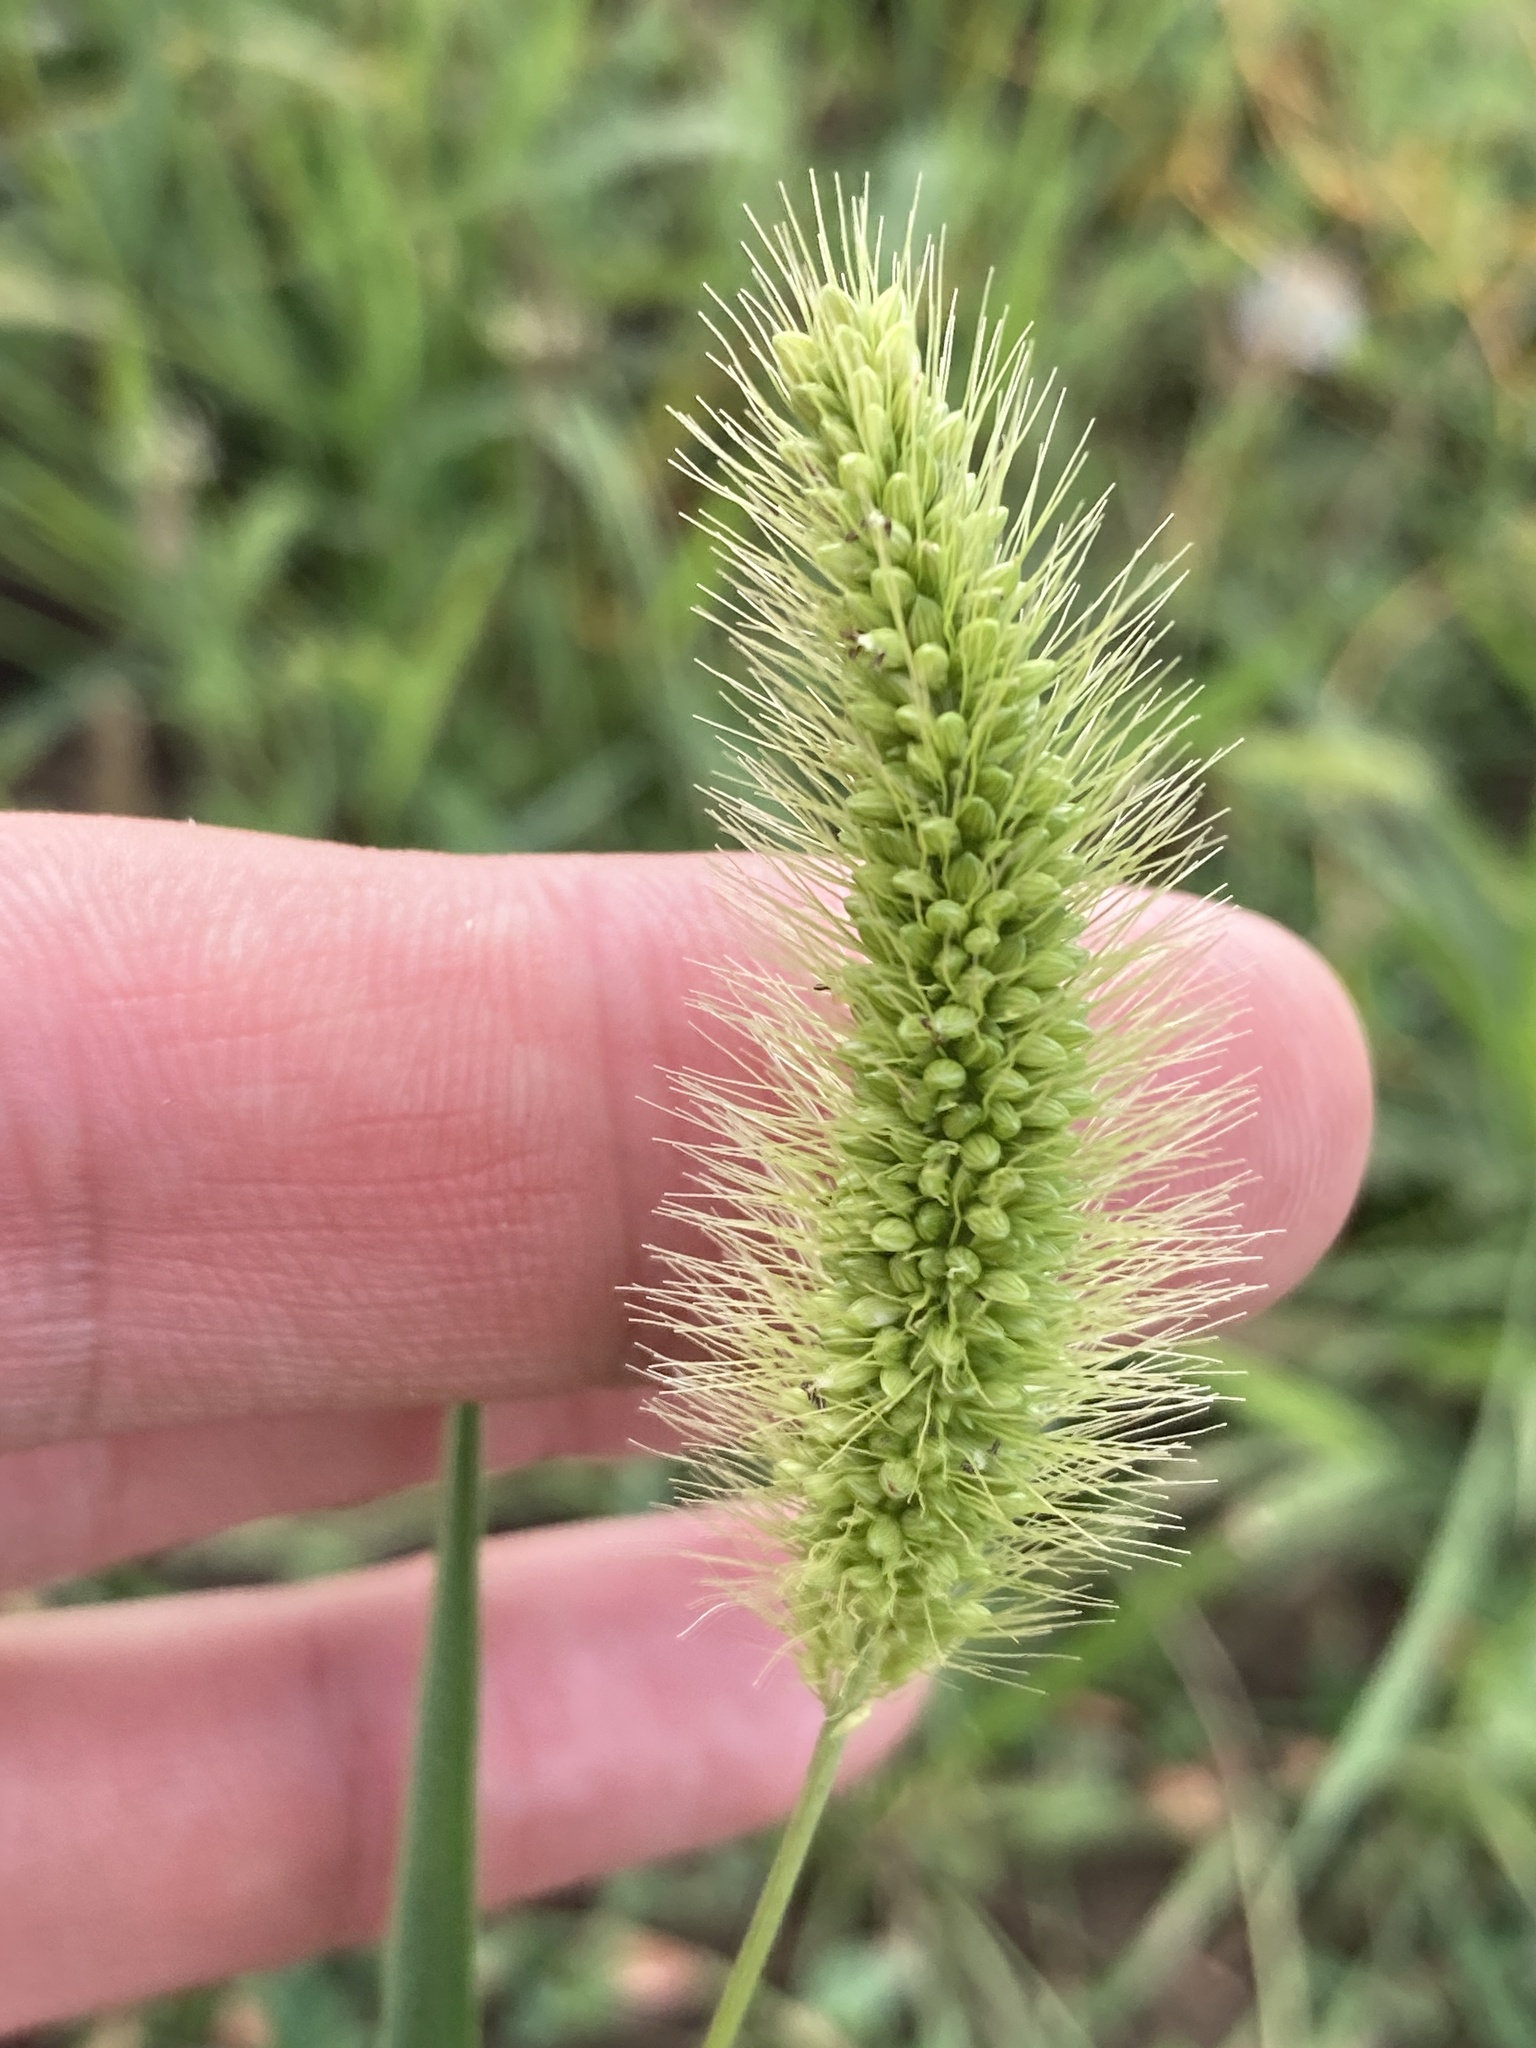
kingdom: Plantae
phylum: Tracheophyta
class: Liliopsida
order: Poales
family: Poaceae
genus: Setaria
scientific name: Setaria viridis
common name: Green bristlegrass
